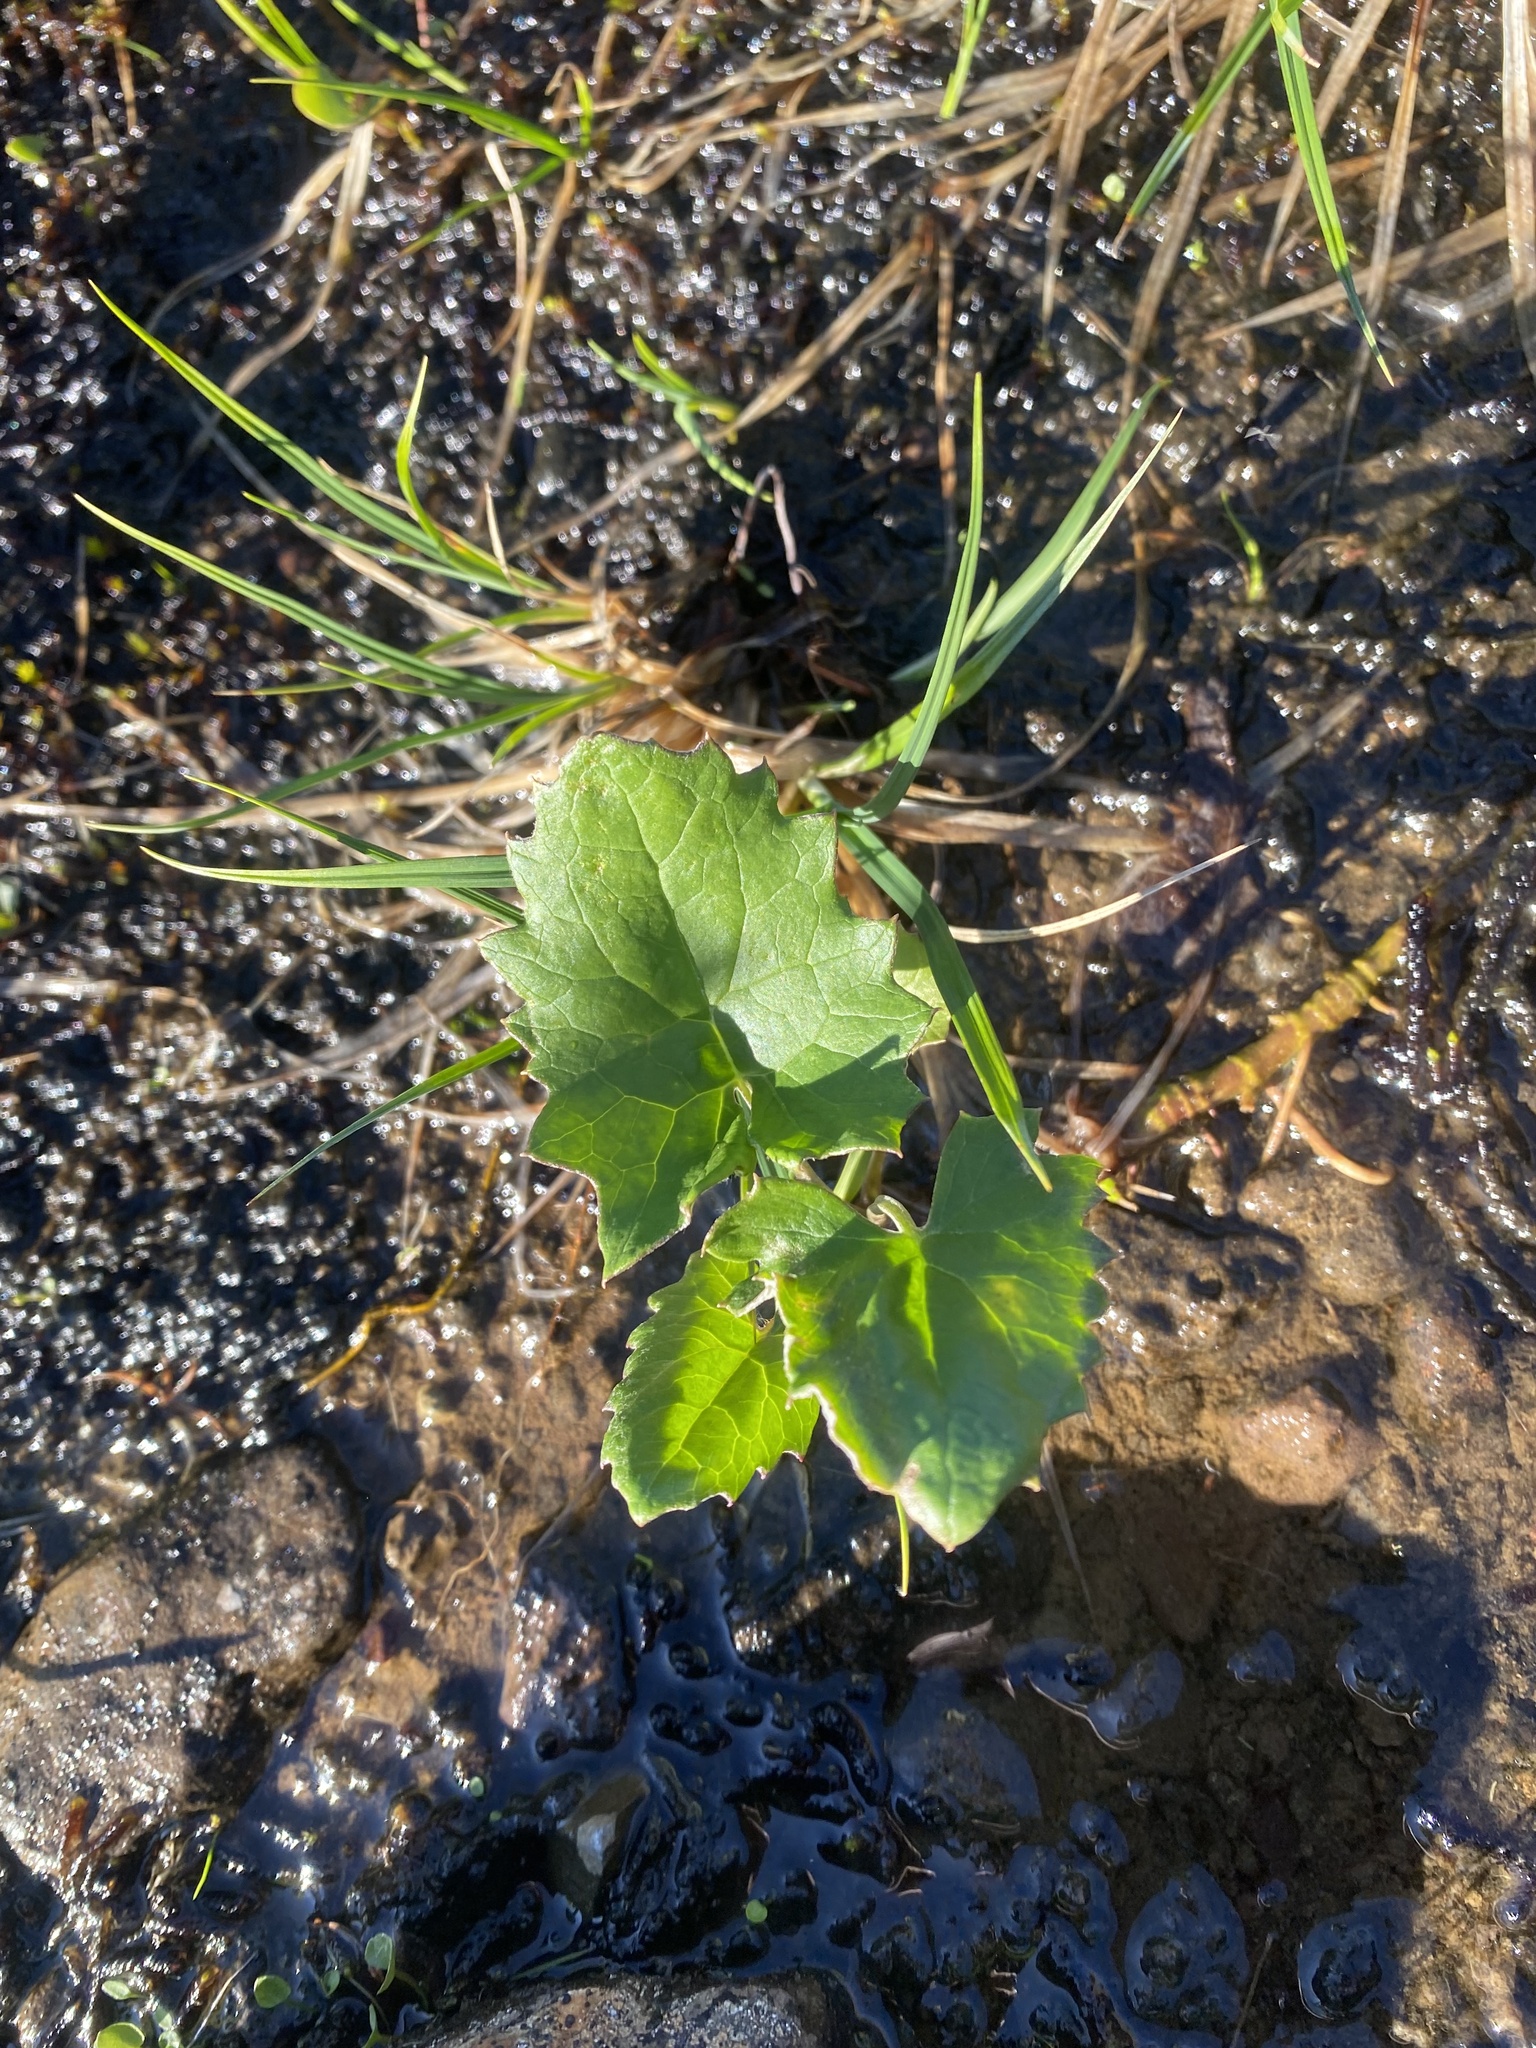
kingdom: Plantae
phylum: Tracheophyta
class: Magnoliopsida
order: Asterales
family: Asteraceae
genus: Petasites
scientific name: Petasites frigidus
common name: Arctic butterbur
